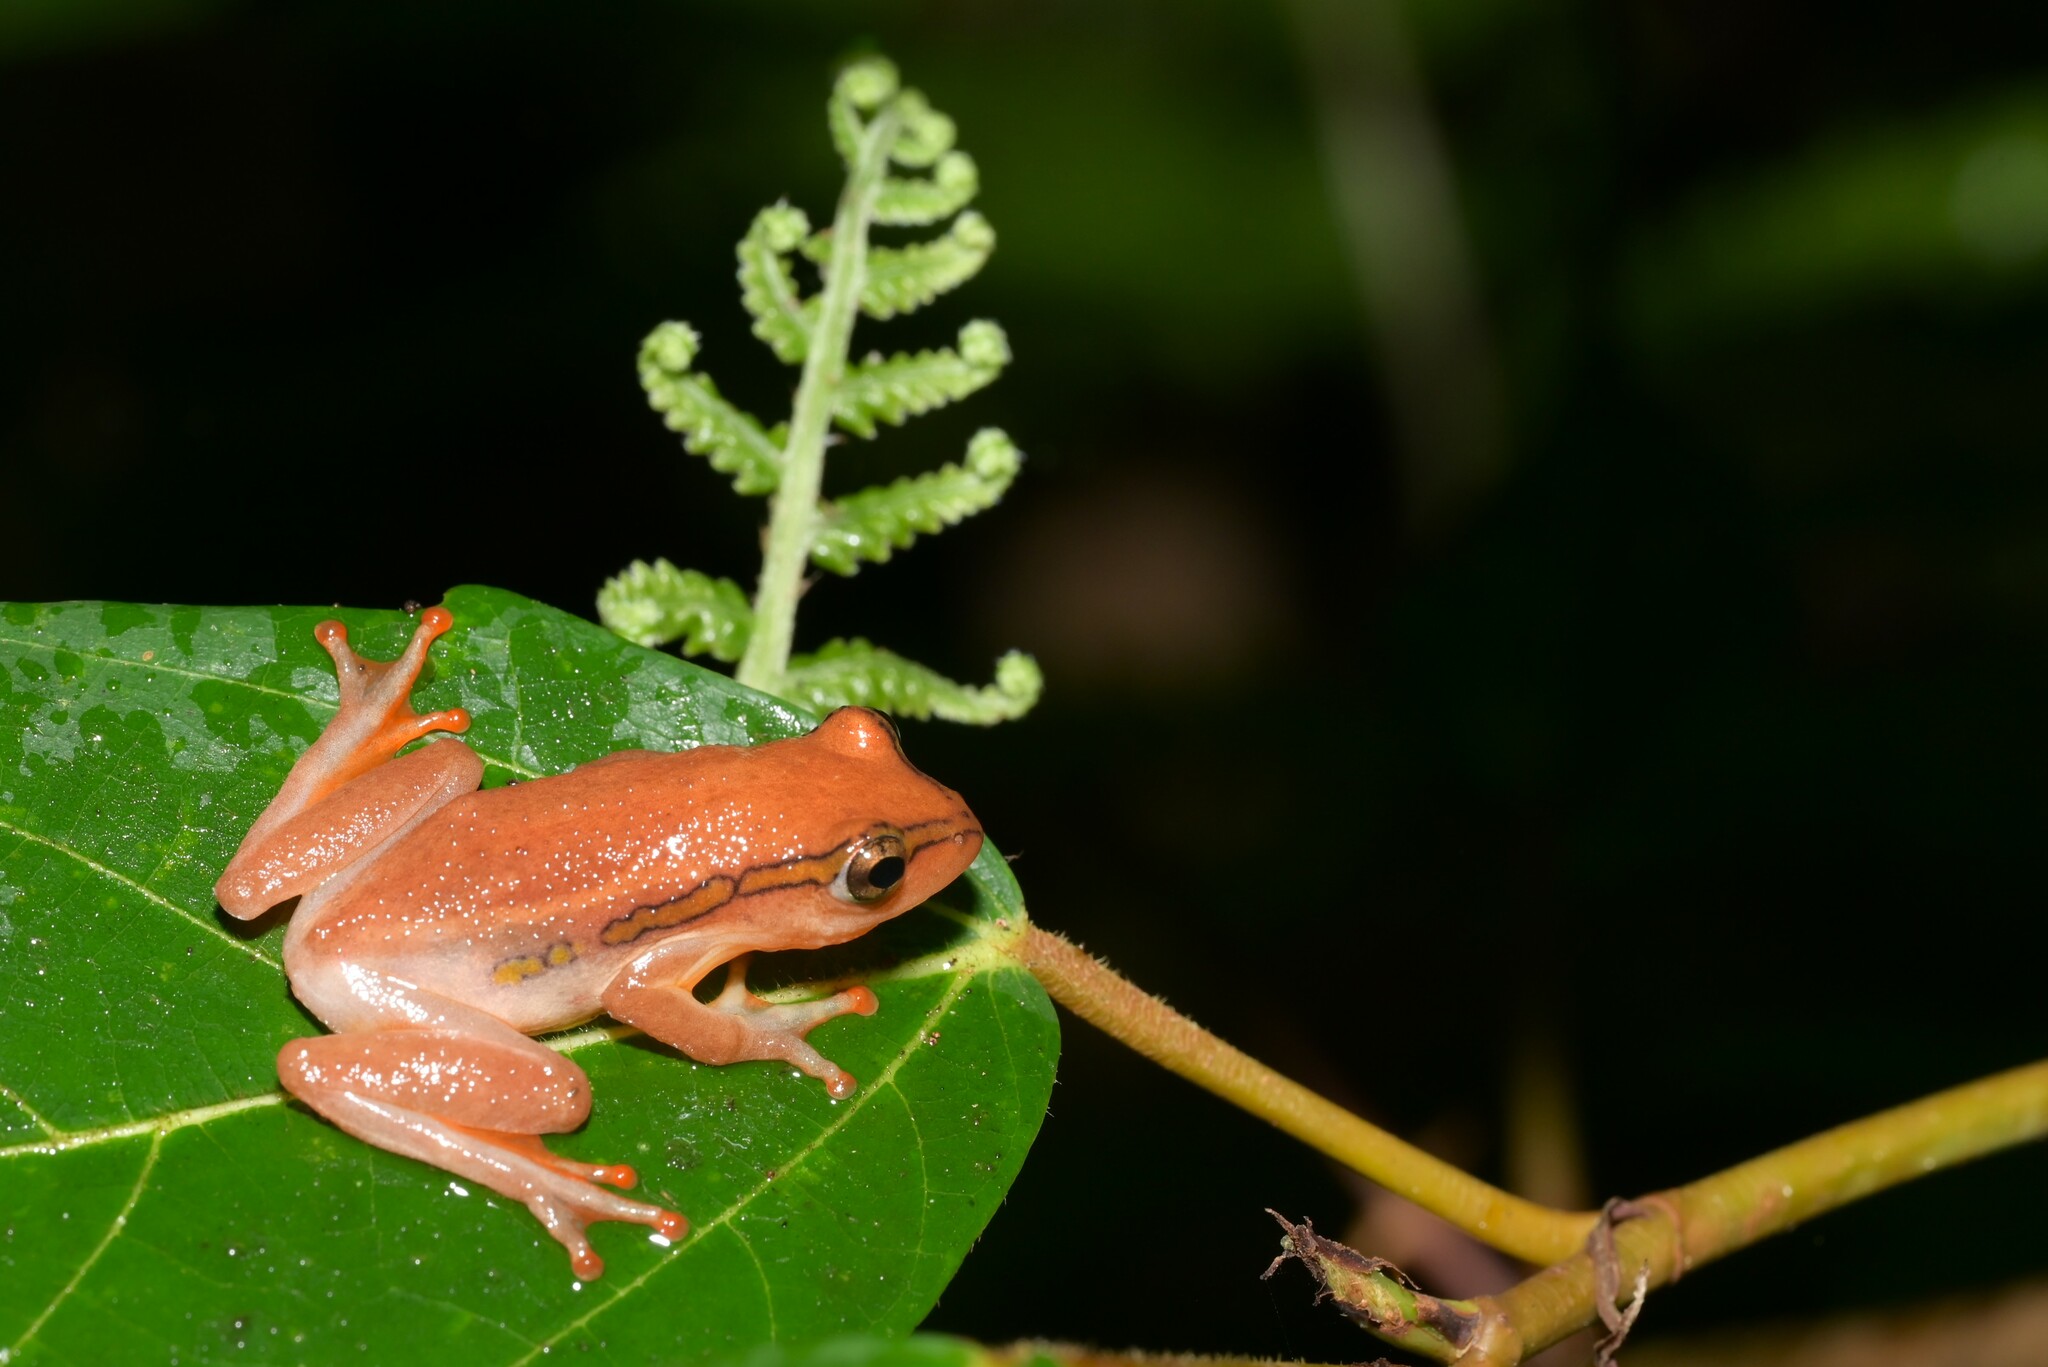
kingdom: Animalia
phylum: Chordata
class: Amphibia
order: Anura
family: Hyperoliidae
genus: Hyperolius
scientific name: Hyperolius substriatus
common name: Spotted reed frog
